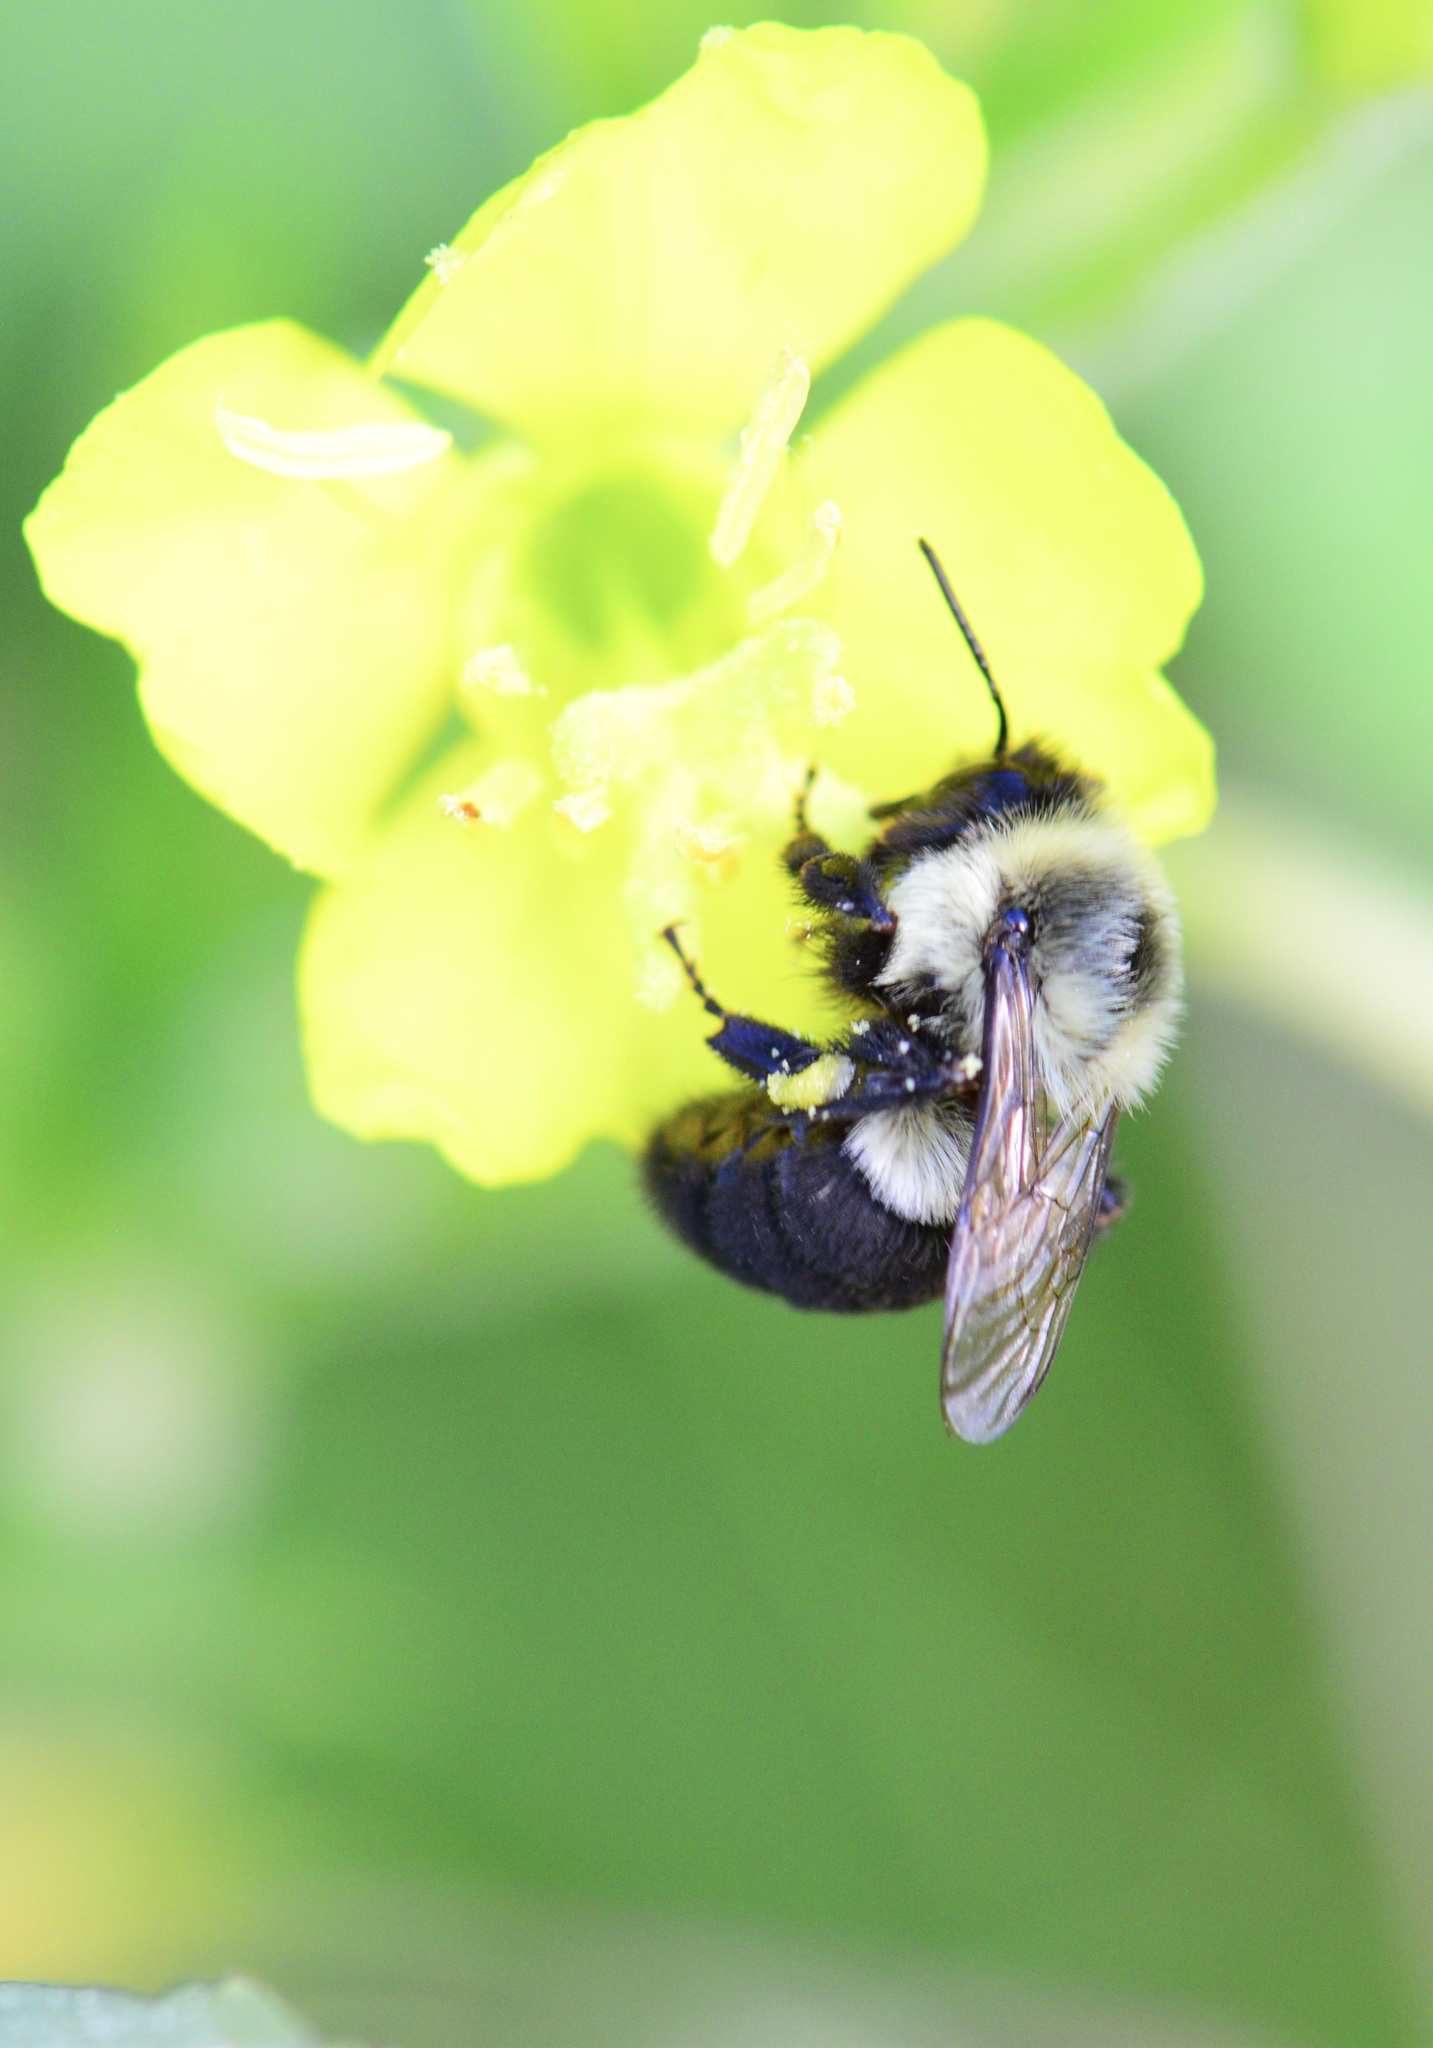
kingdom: Animalia
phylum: Arthropoda
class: Insecta
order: Hymenoptera
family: Apidae
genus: Bombus
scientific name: Bombus impatiens
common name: Common eastern bumble bee
